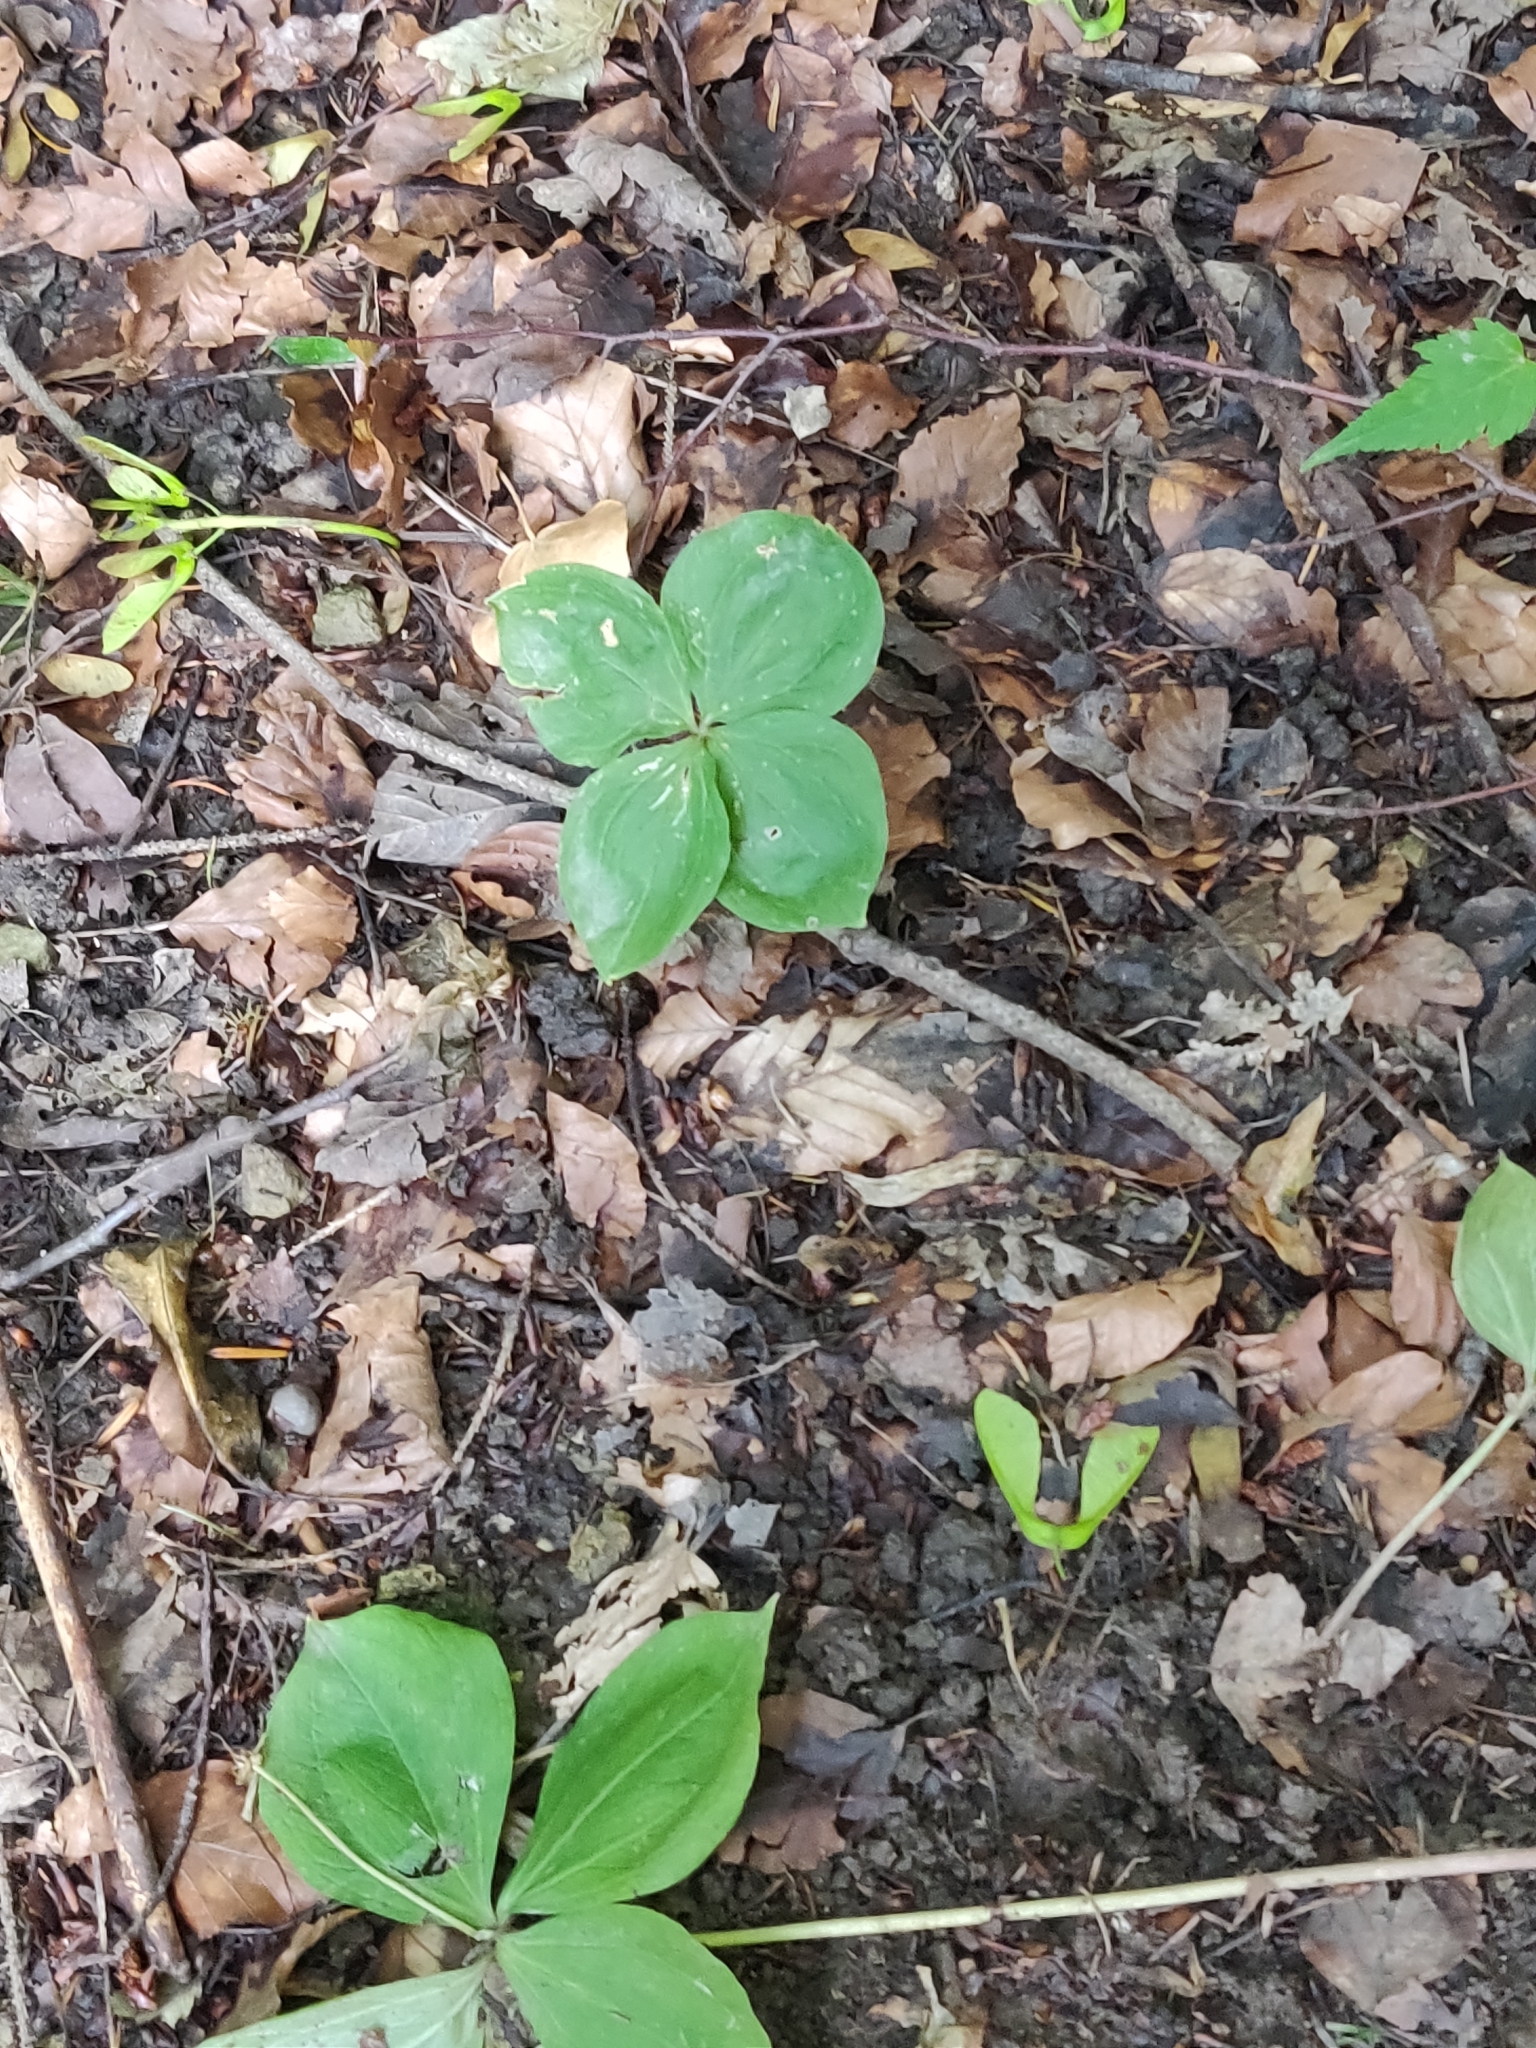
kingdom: Plantae
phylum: Tracheophyta
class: Liliopsida
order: Liliales
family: Melanthiaceae
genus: Paris
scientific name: Paris quadrifolia
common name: Herb-paris
